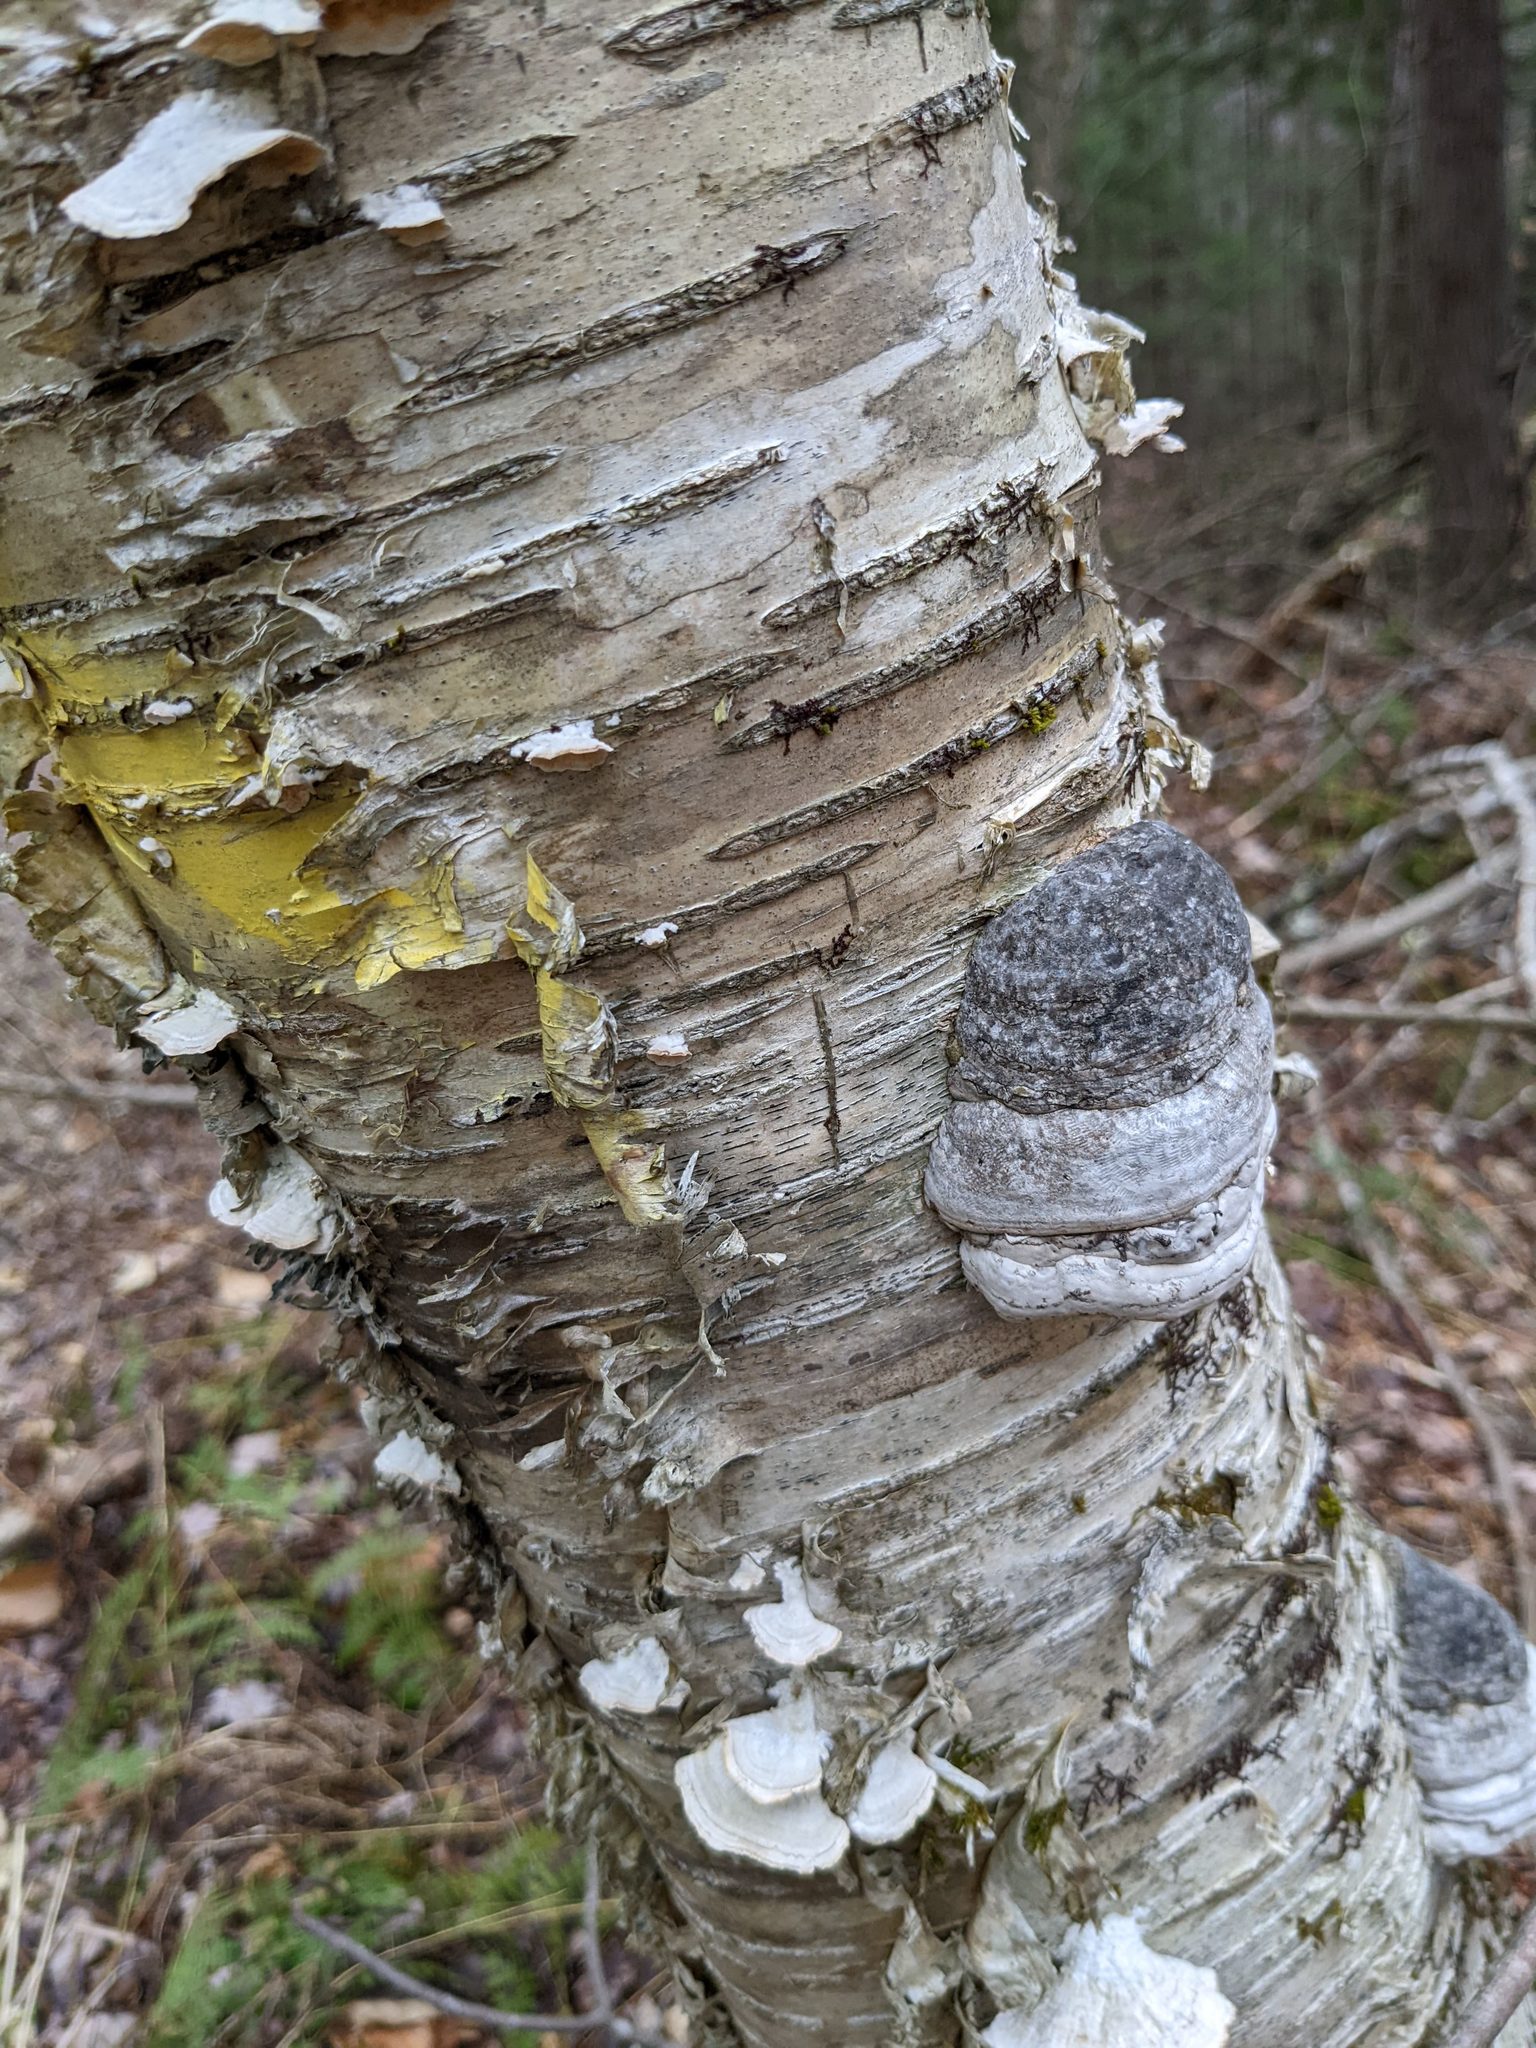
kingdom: Plantae
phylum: Tracheophyta
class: Magnoliopsida
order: Fagales
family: Betulaceae
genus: Betula
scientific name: Betula alleghaniensis
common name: Yellow birch
